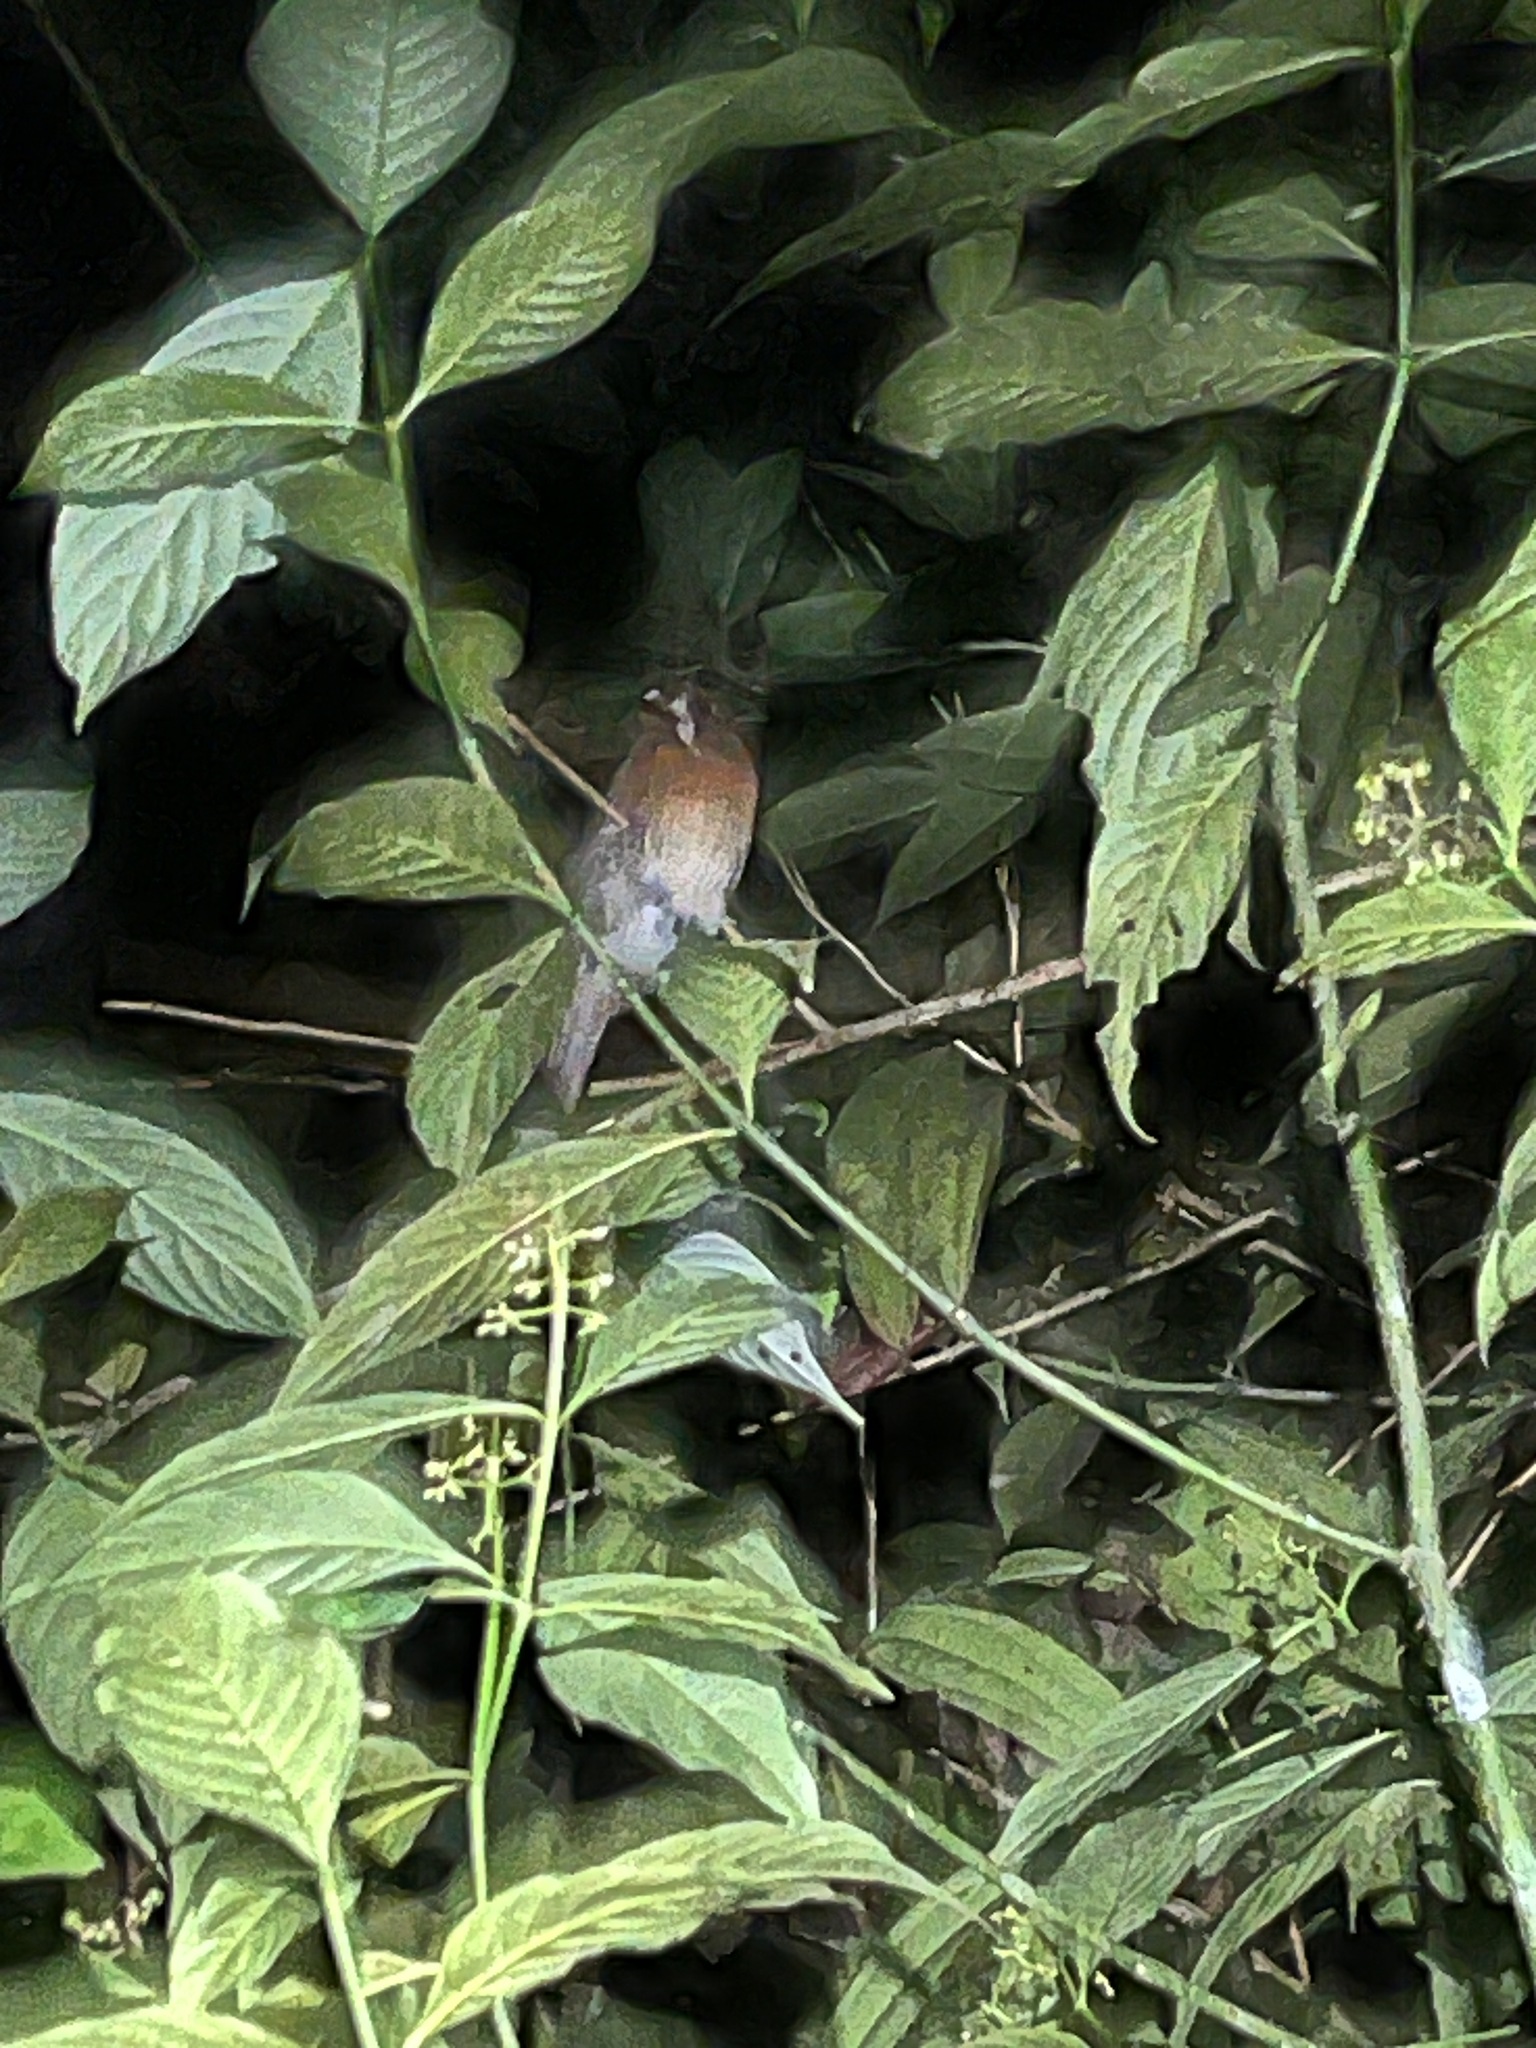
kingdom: Animalia
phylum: Chordata
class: Aves
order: Piciformes
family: Bucconidae
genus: Malacoptila
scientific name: Malacoptila mystacalis
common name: Moustached puffbird
